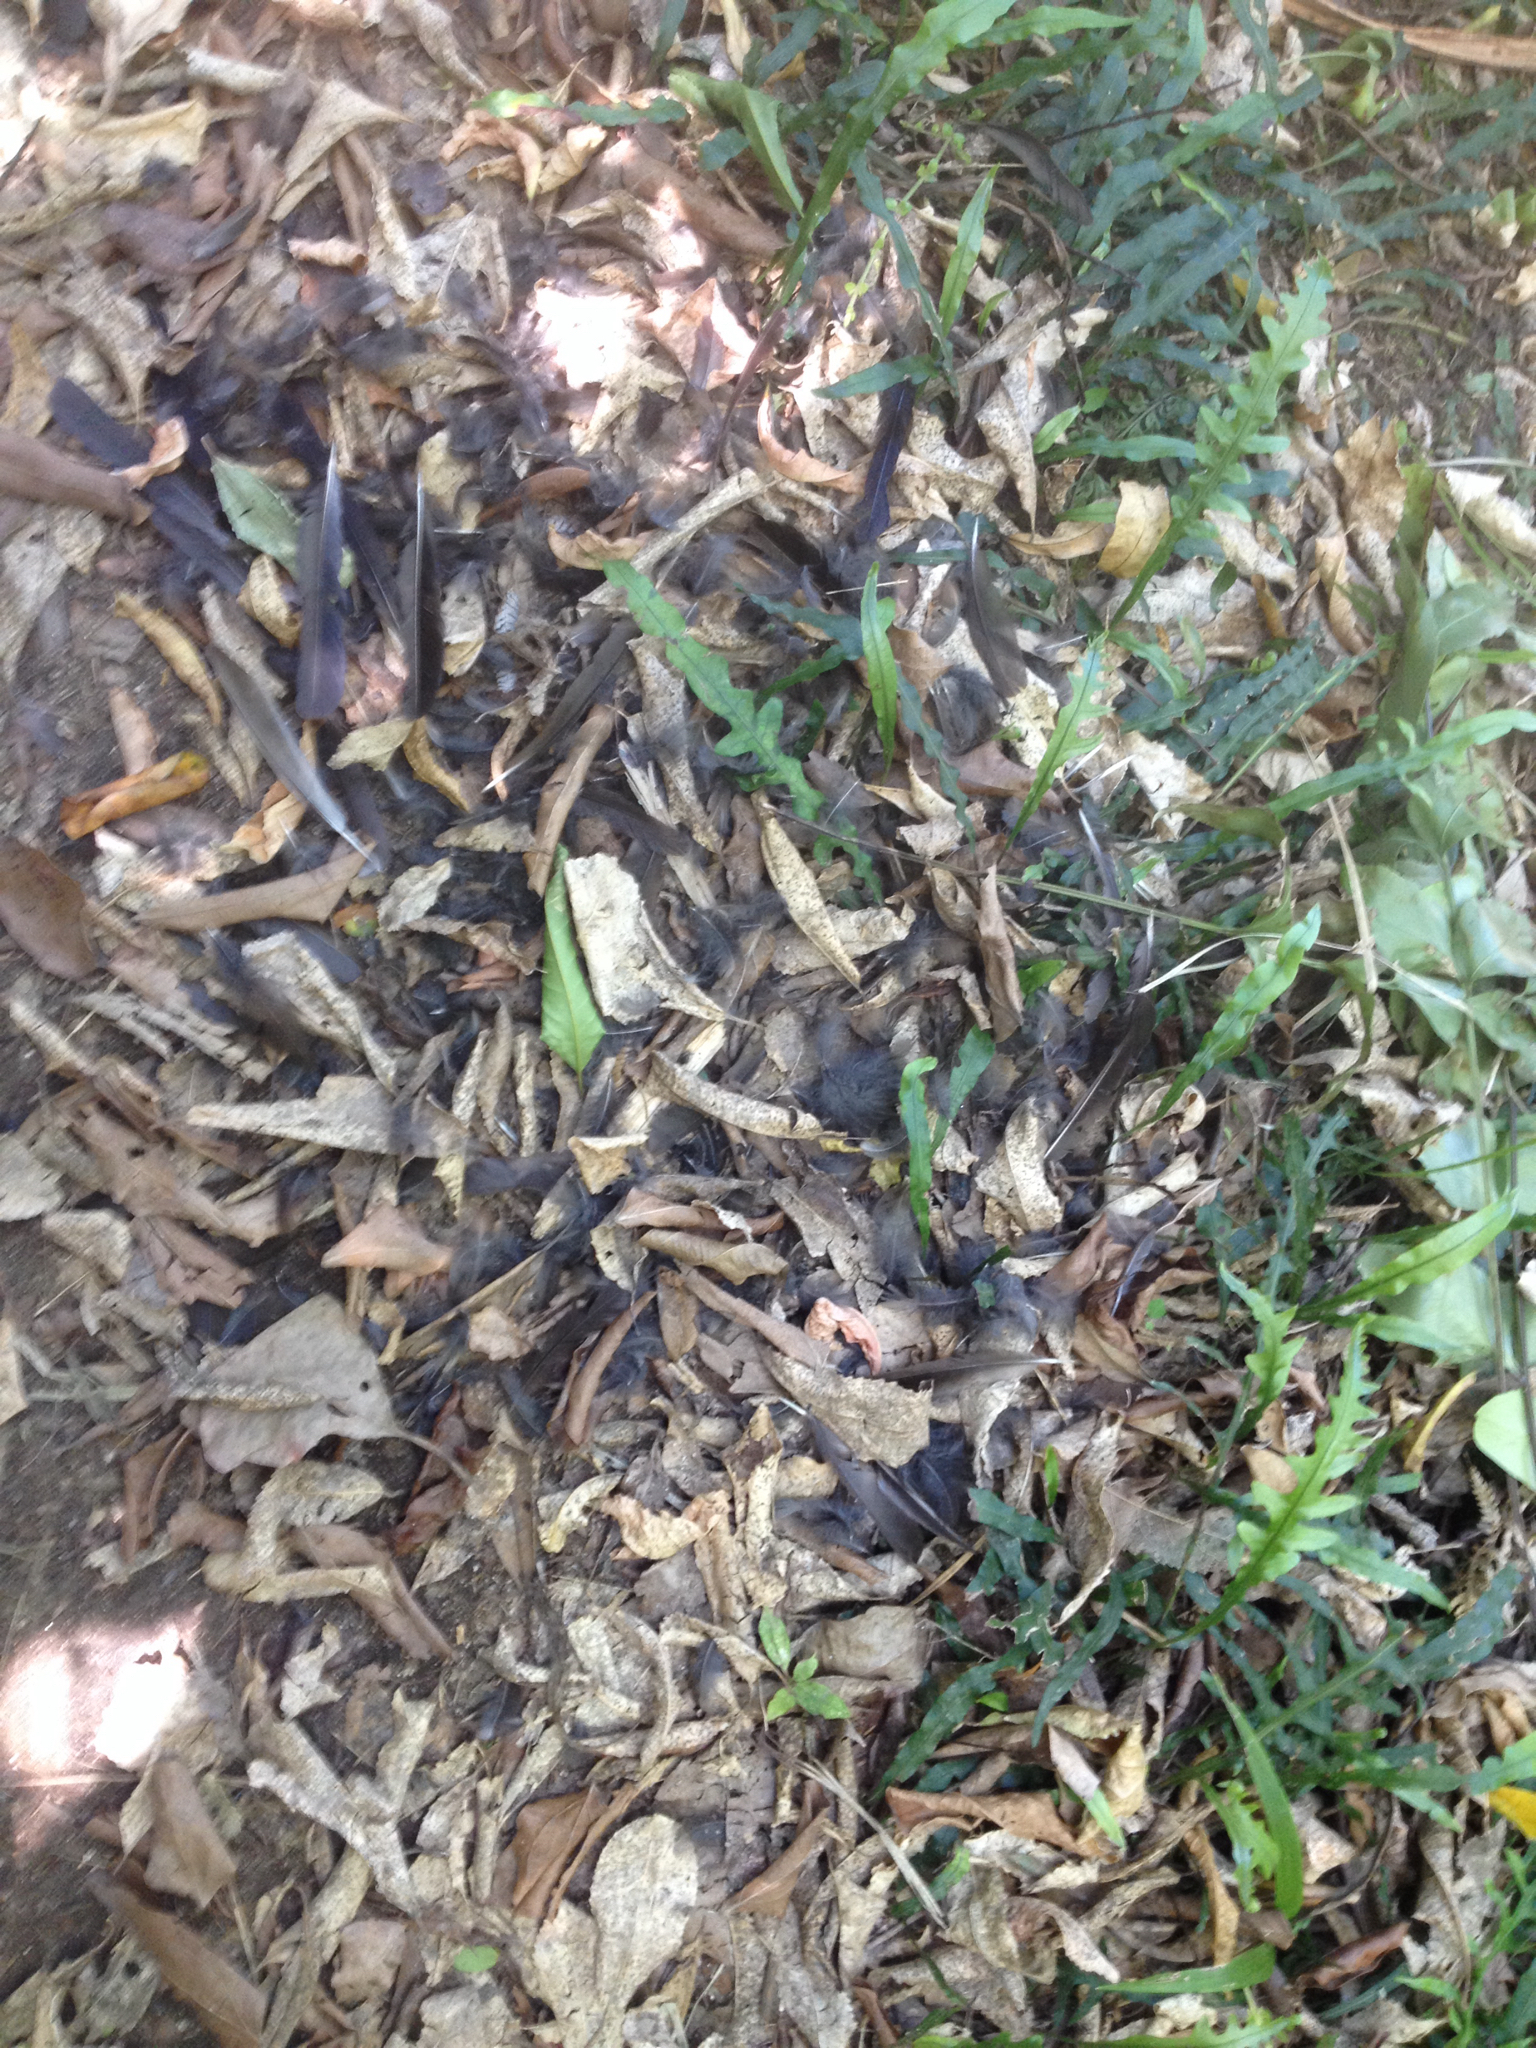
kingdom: Animalia
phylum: Chordata
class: Aves
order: Passeriformes
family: Turdidae
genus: Turdus
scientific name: Turdus merula
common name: Common blackbird
